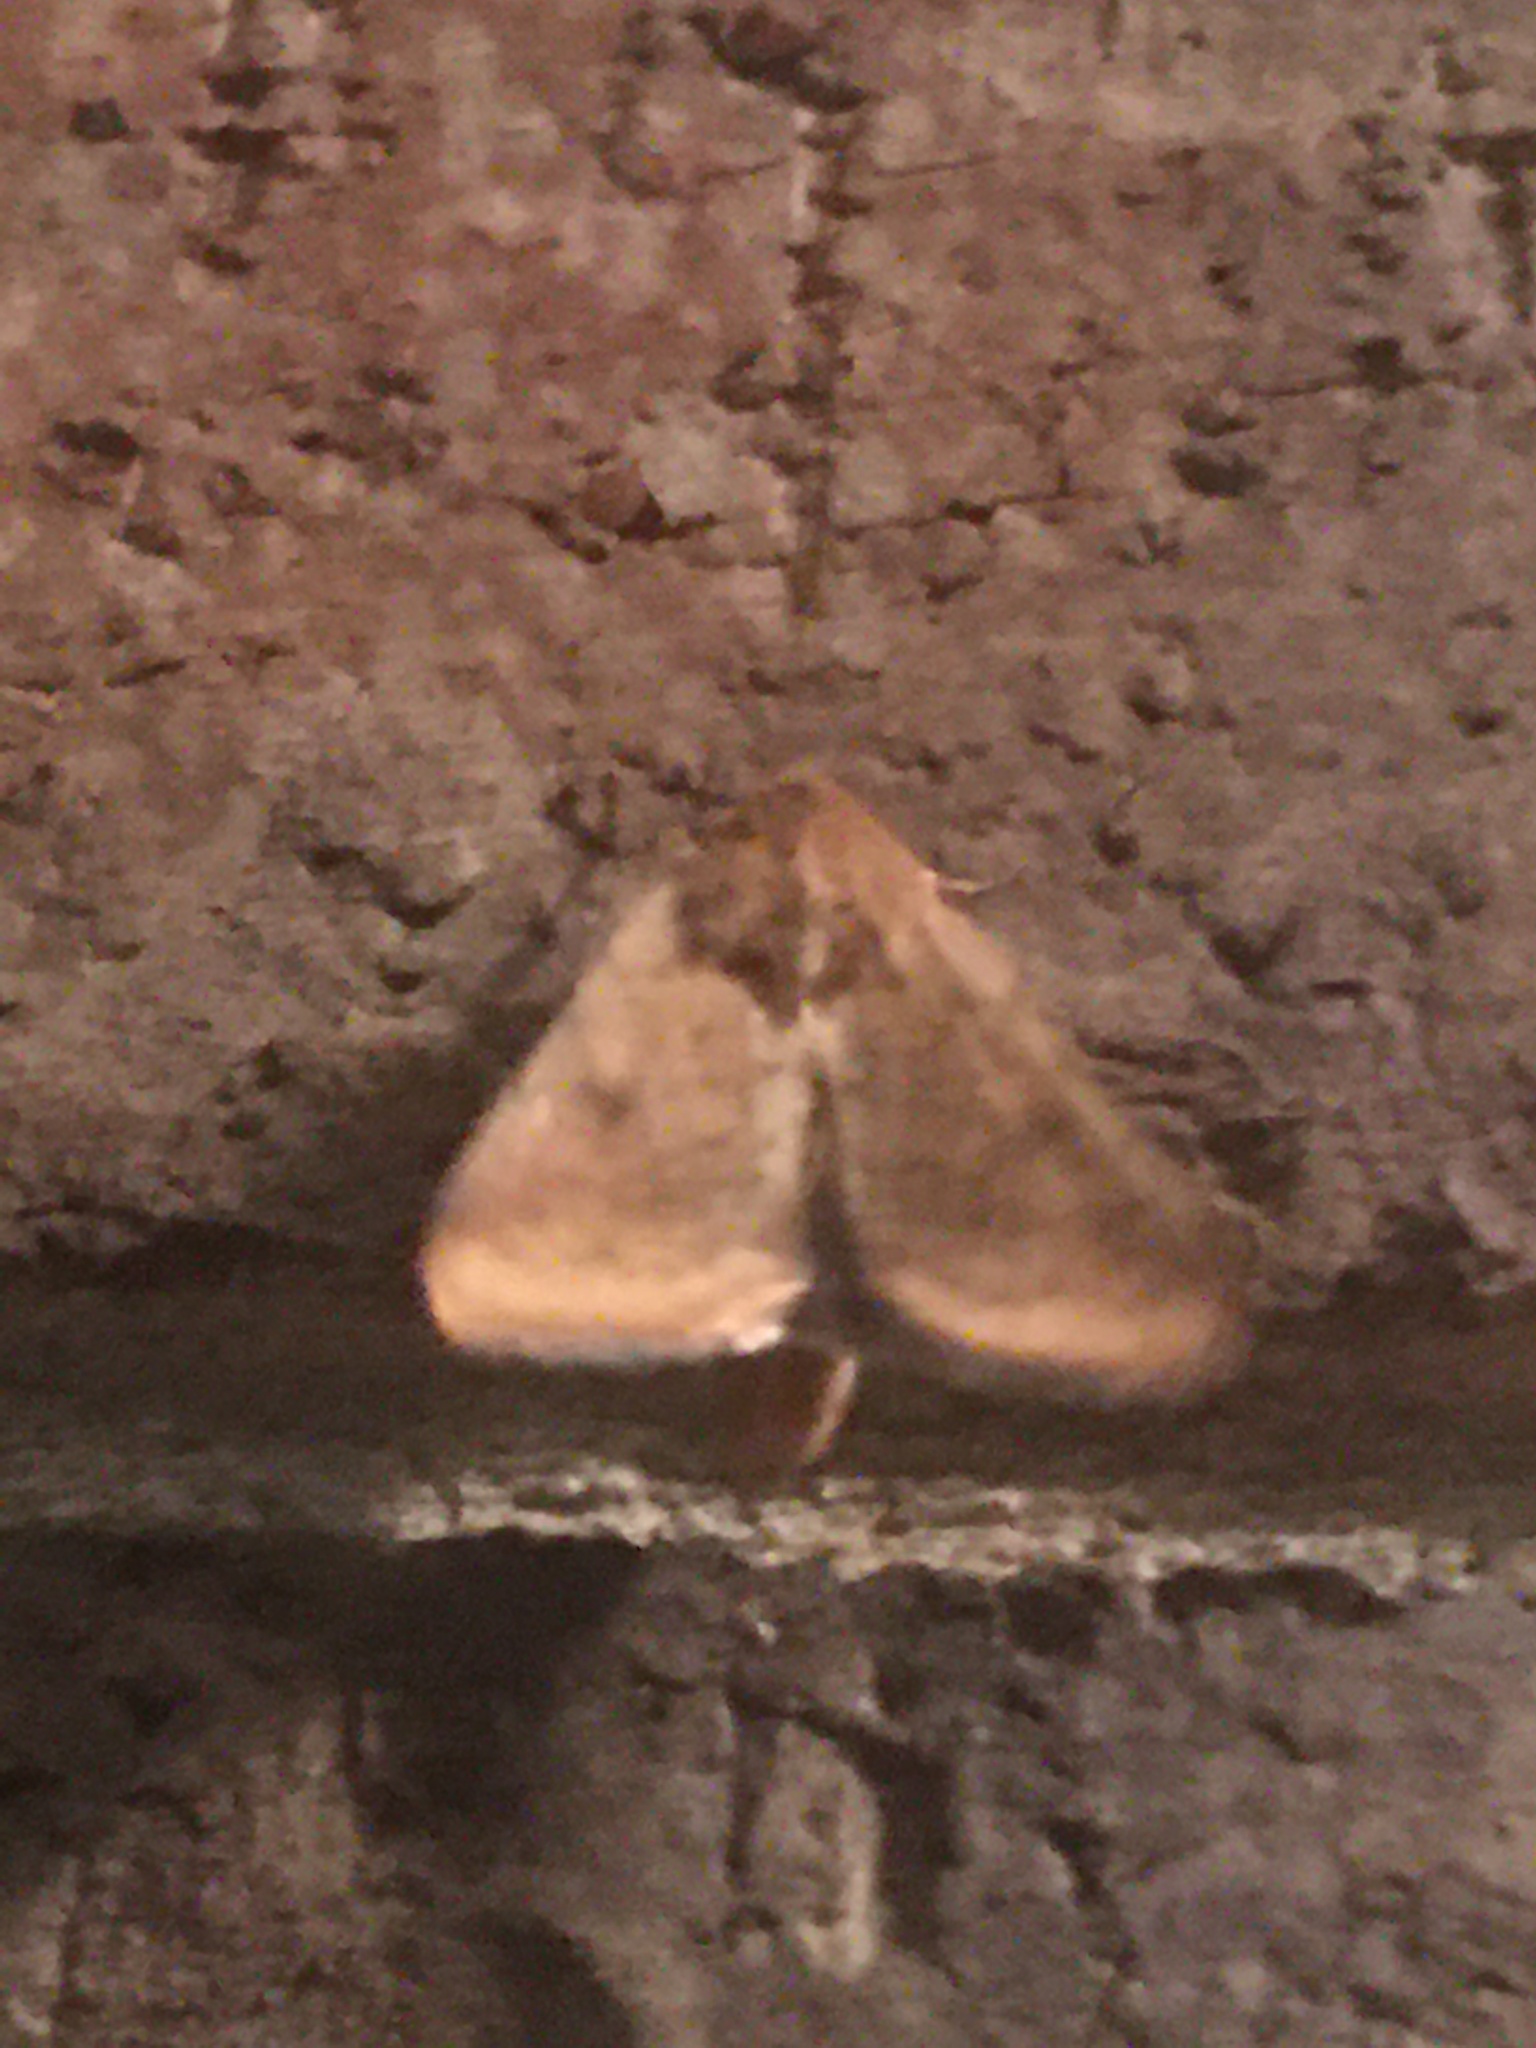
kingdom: Animalia
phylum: Arthropoda
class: Insecta
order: Lepidoptera
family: Noctuidae
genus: Helicoverpa
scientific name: Helicoverpa zea
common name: Bollworm
